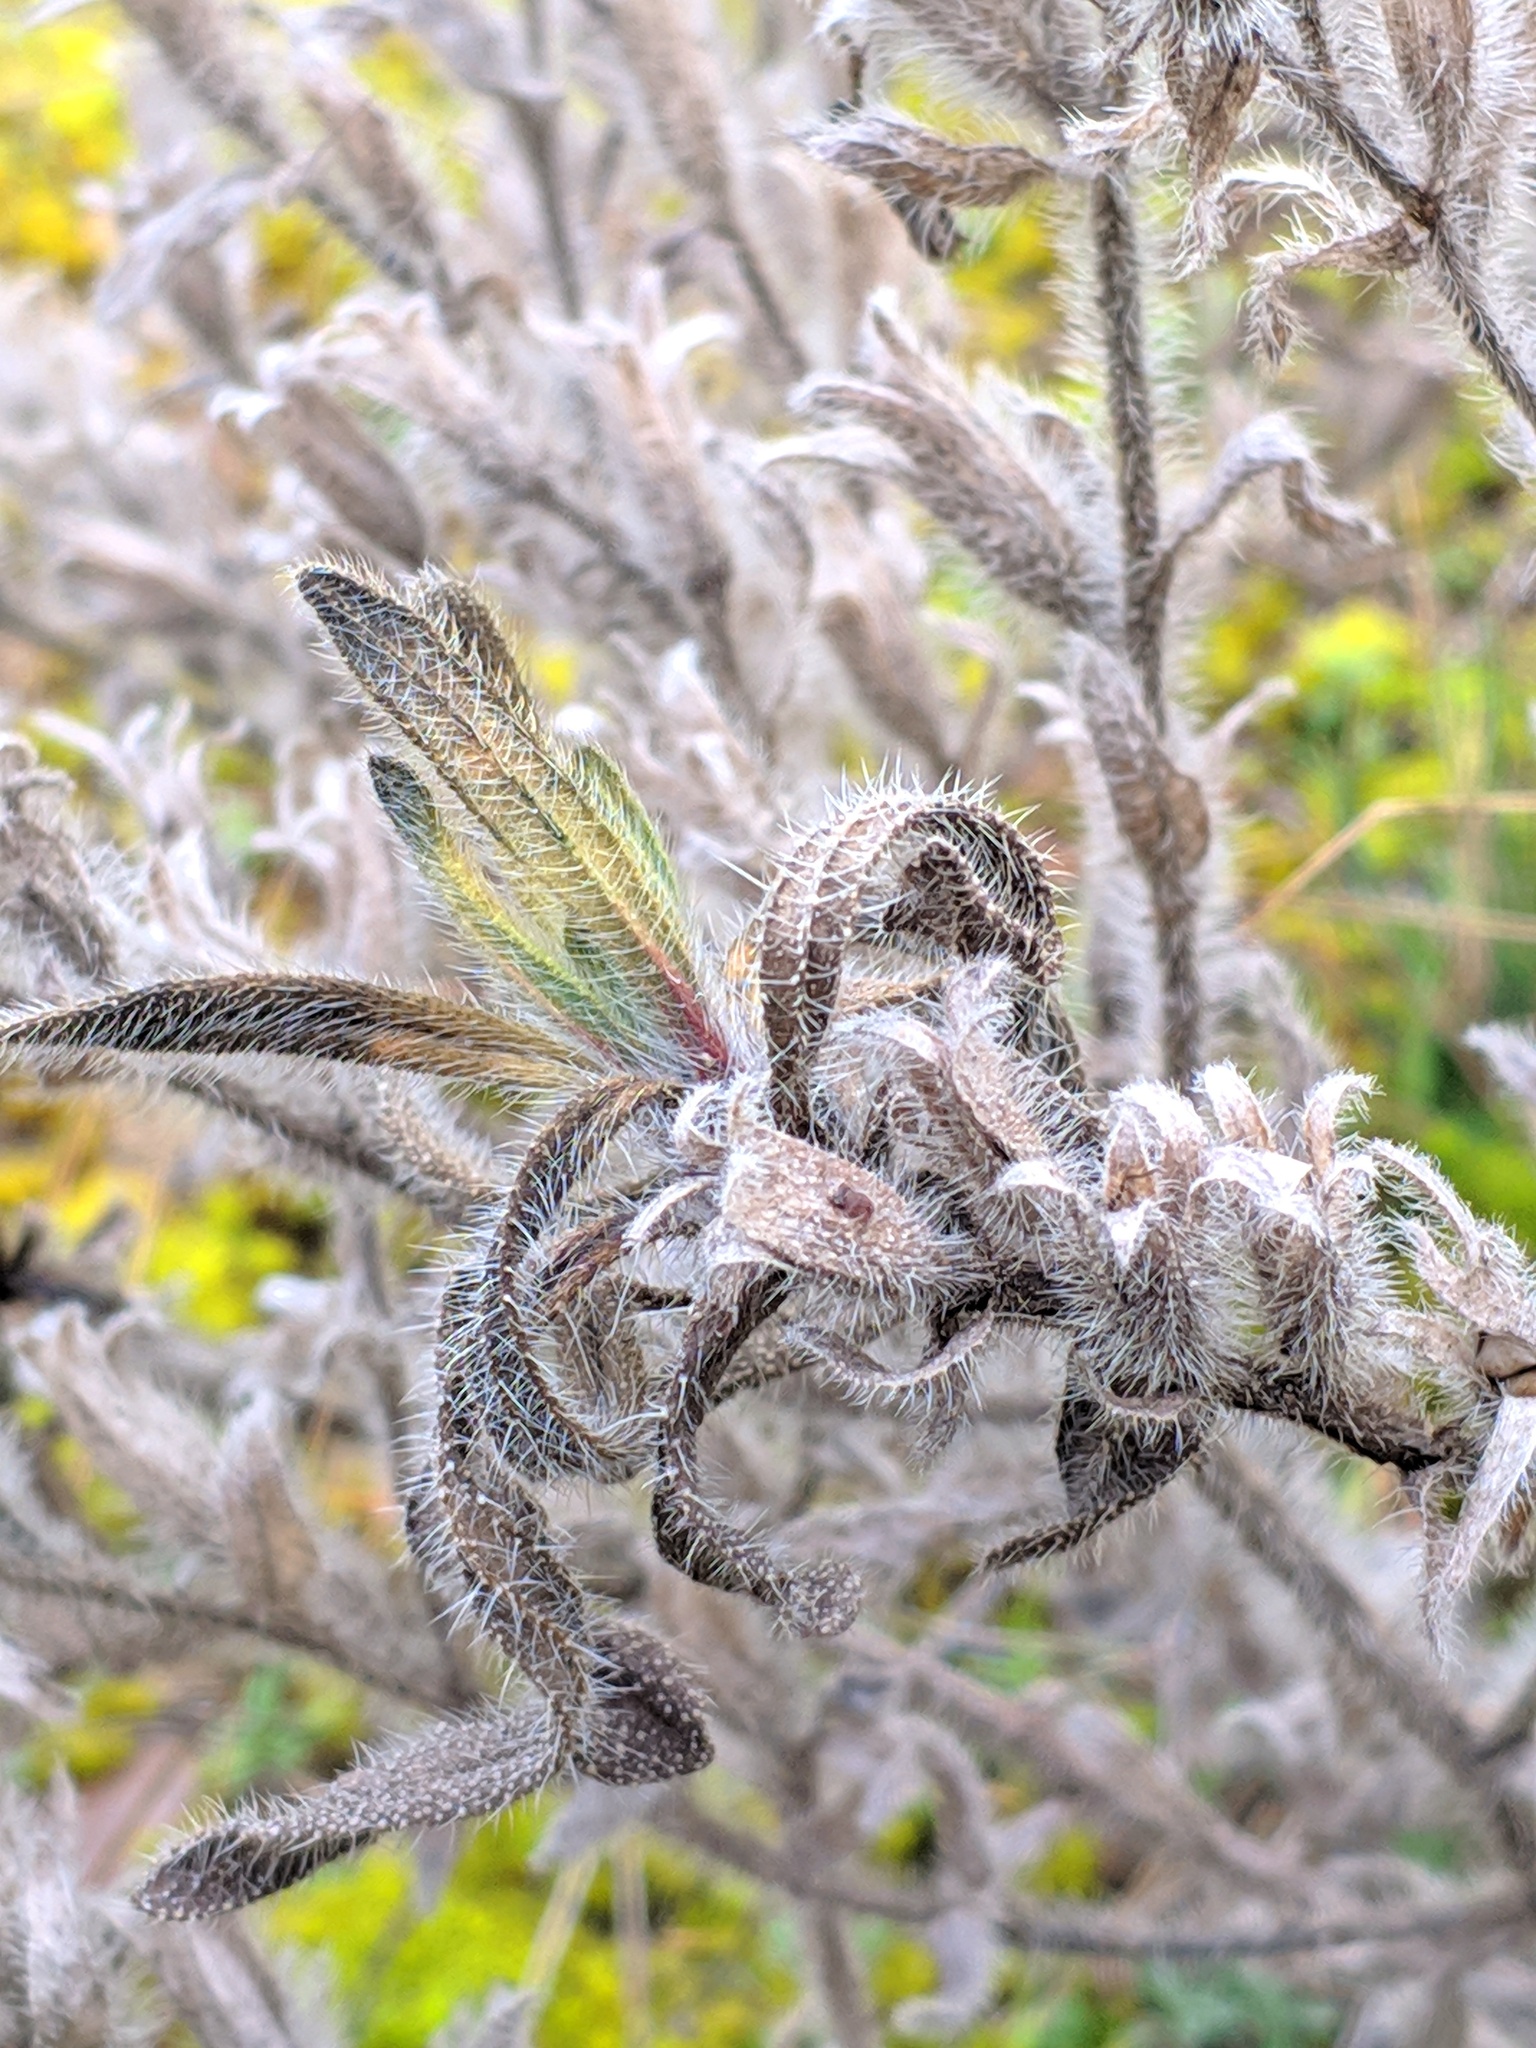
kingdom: Plantae
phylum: Tracheophyta
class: Magnoliopsida
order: Boraginales
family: Boraginaceae
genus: Onosma
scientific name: Onosma arenaria
